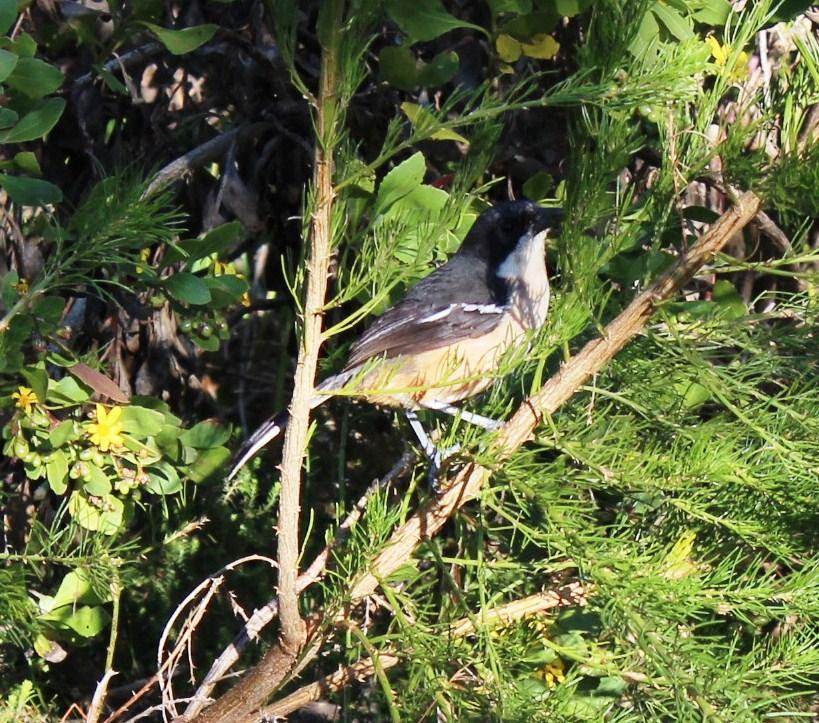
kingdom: Animalia
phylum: Chordata
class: Aves
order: Passeriformes
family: Malaconotidae
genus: Laniarius
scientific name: Laniarius ferrugineus
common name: Southern boubou
